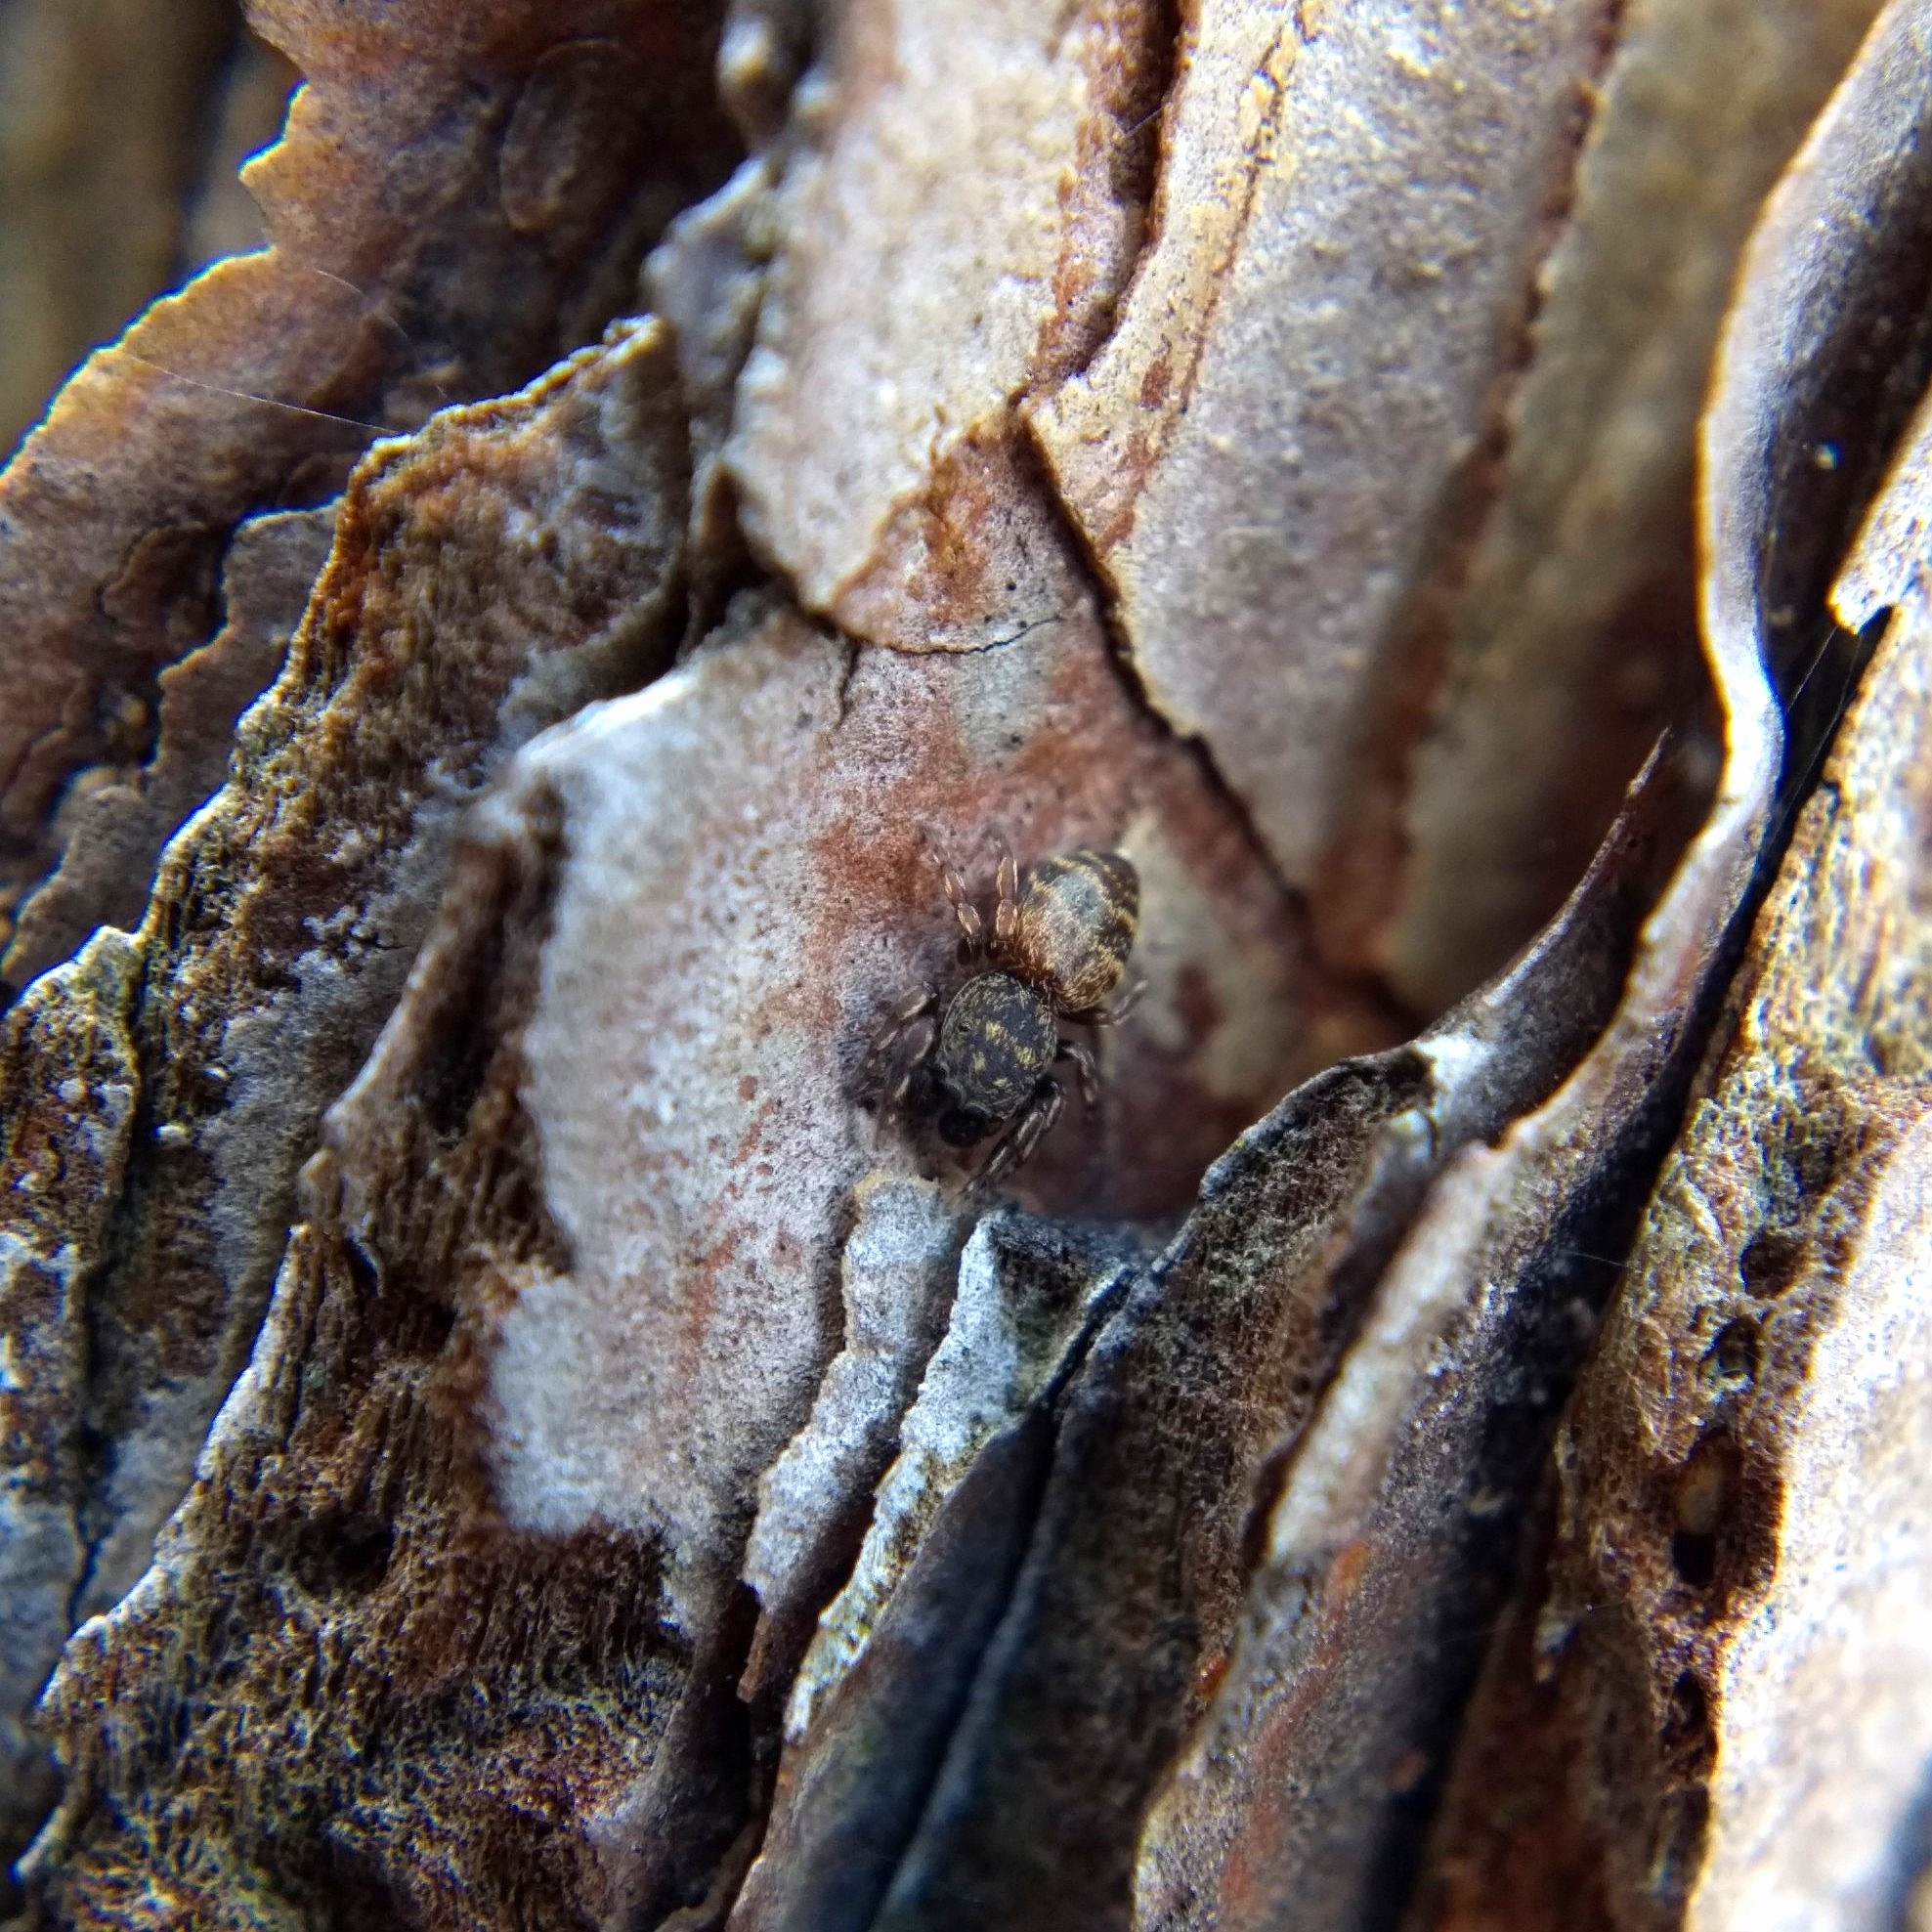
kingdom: Animalia
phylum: Arthropoda
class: Arachnida
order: Araneae
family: Salticidae
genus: Attidops
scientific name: Attidops youngi
